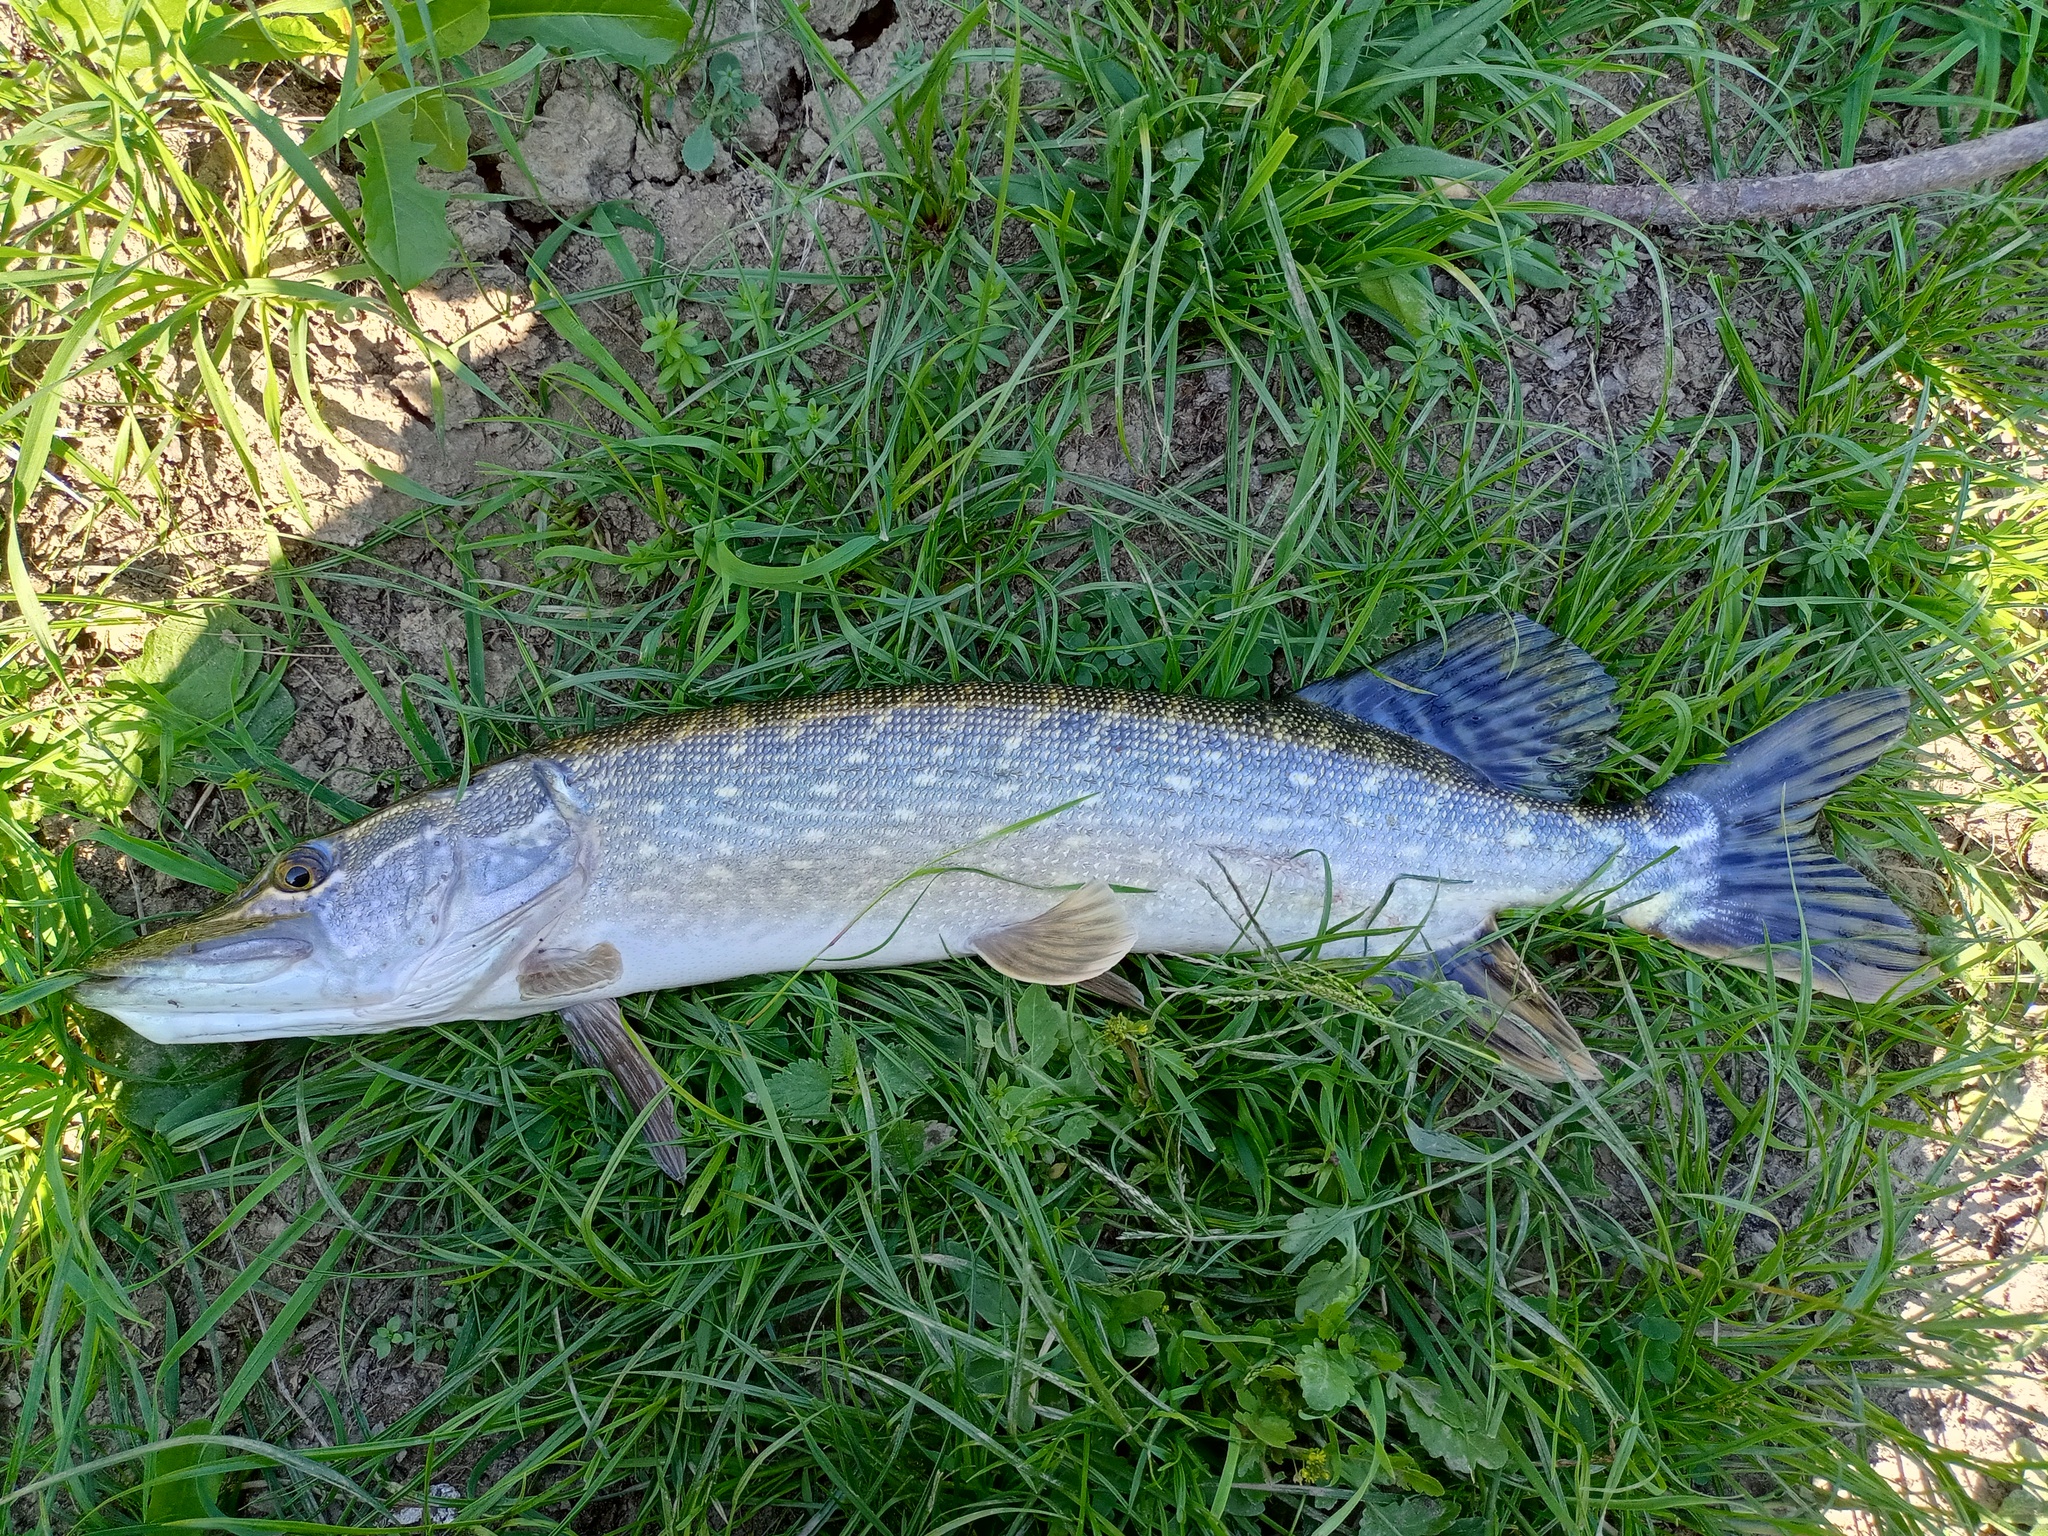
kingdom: Animalia
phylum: Chordata
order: Esociformes
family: Esocidae
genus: Esox
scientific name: Esox lucius
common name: Northern pike
